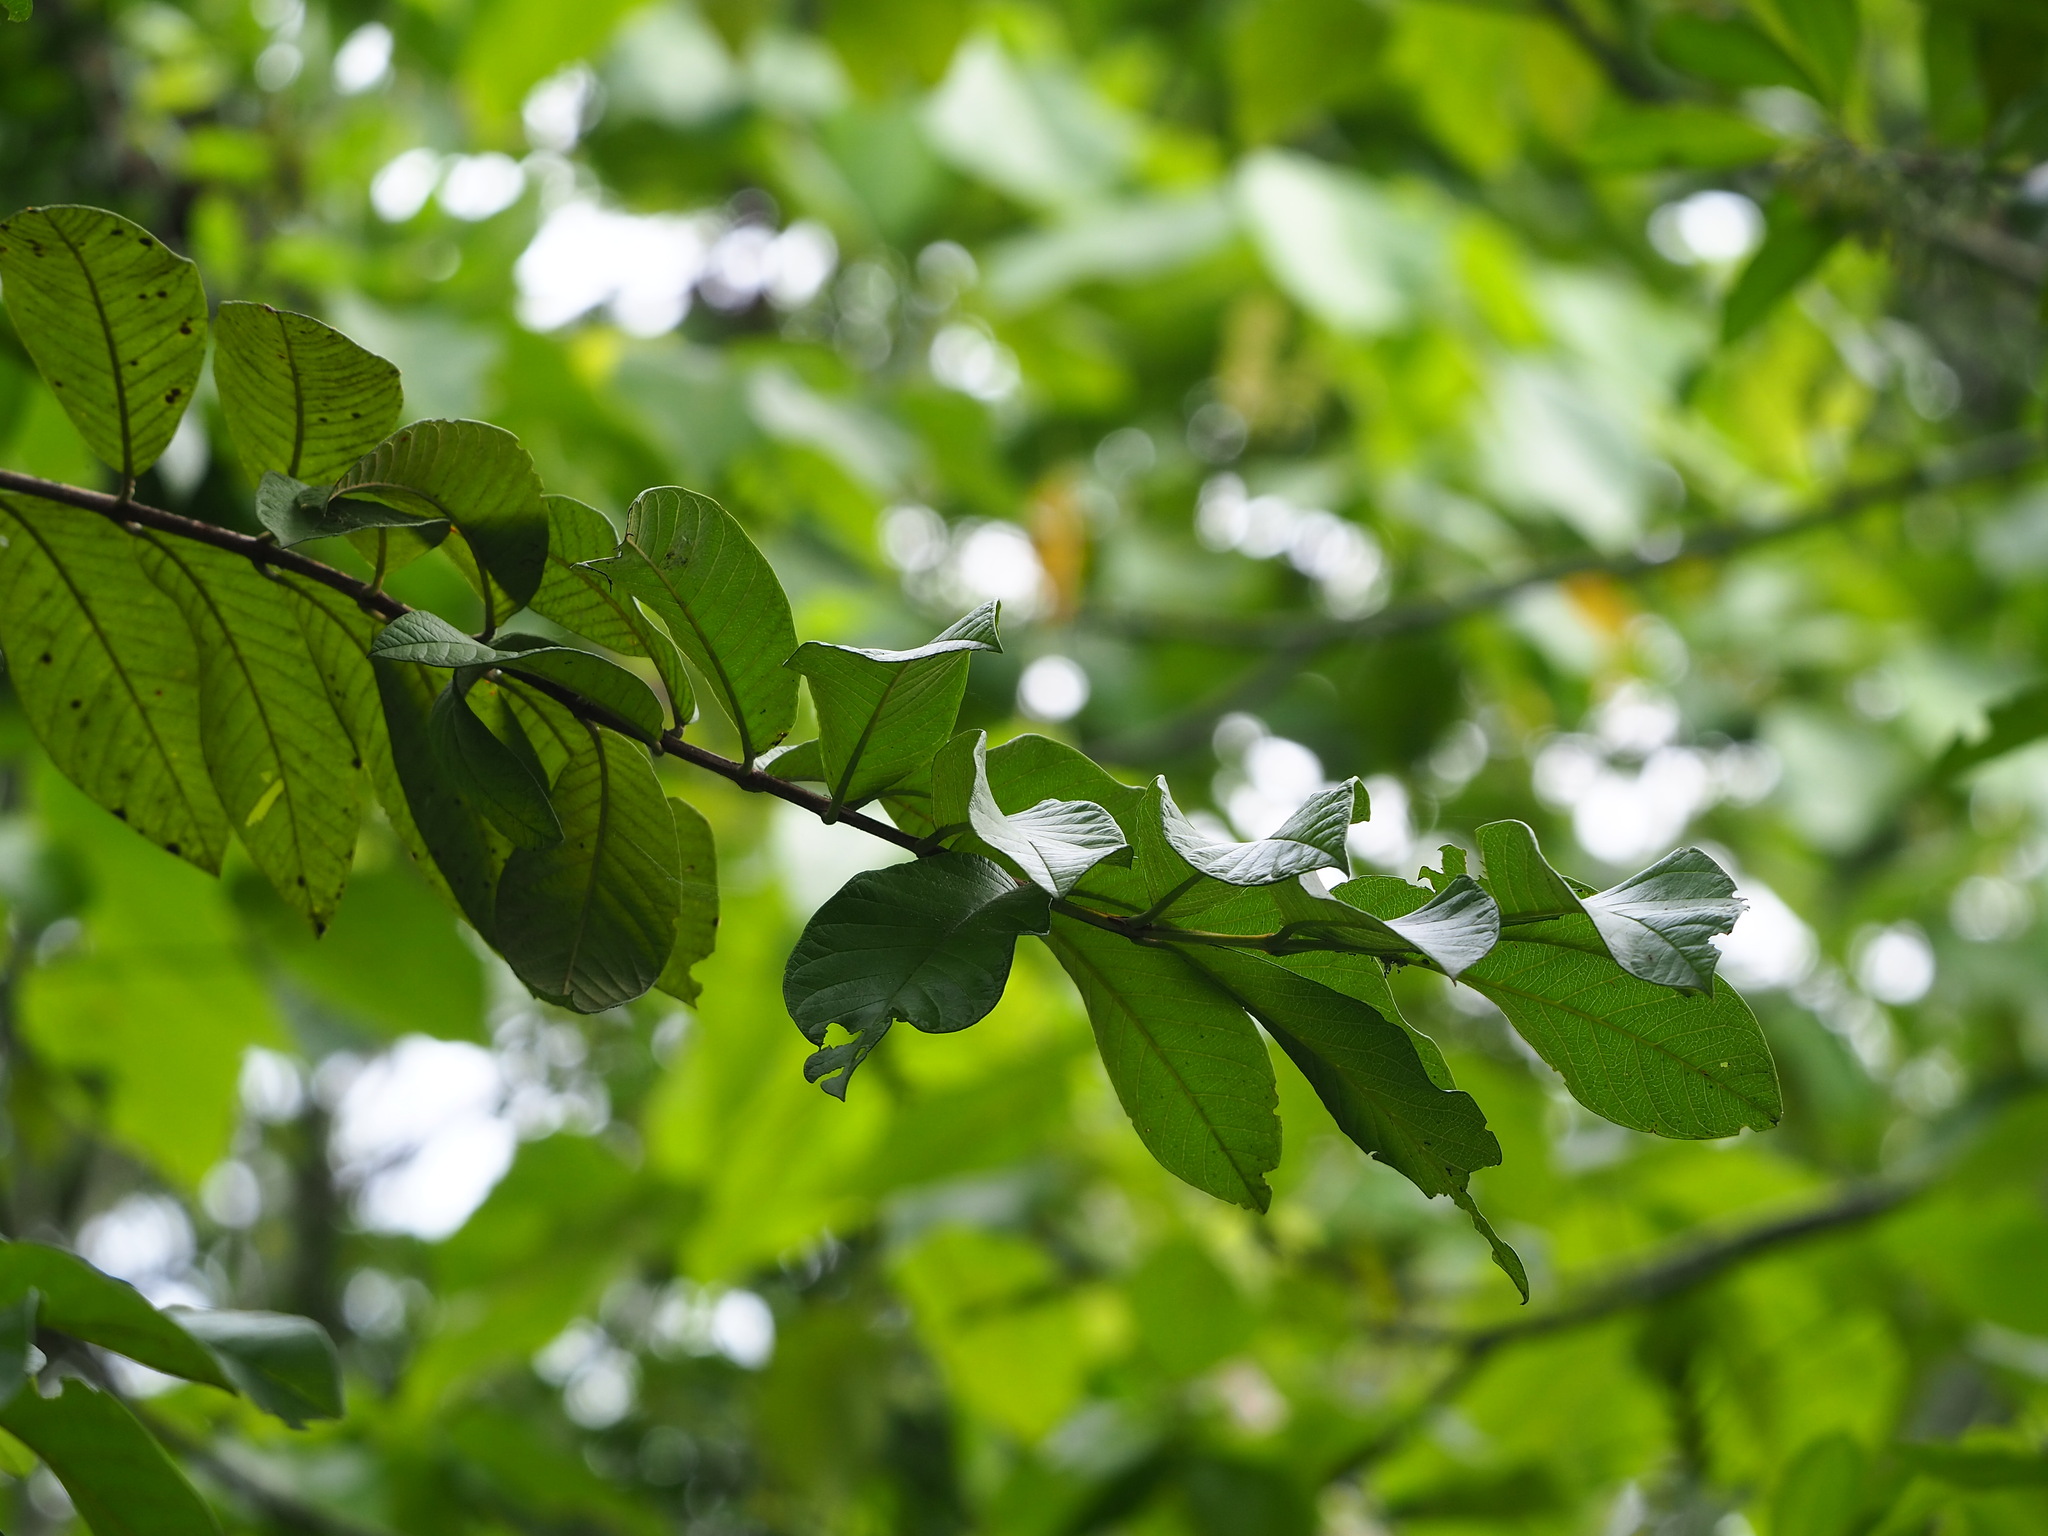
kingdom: Plantae
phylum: Tracheophyta
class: Magnoliopsida
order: Myrtales
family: Myrtaceae
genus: Psidium
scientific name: Psidium guajava
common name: Guava
